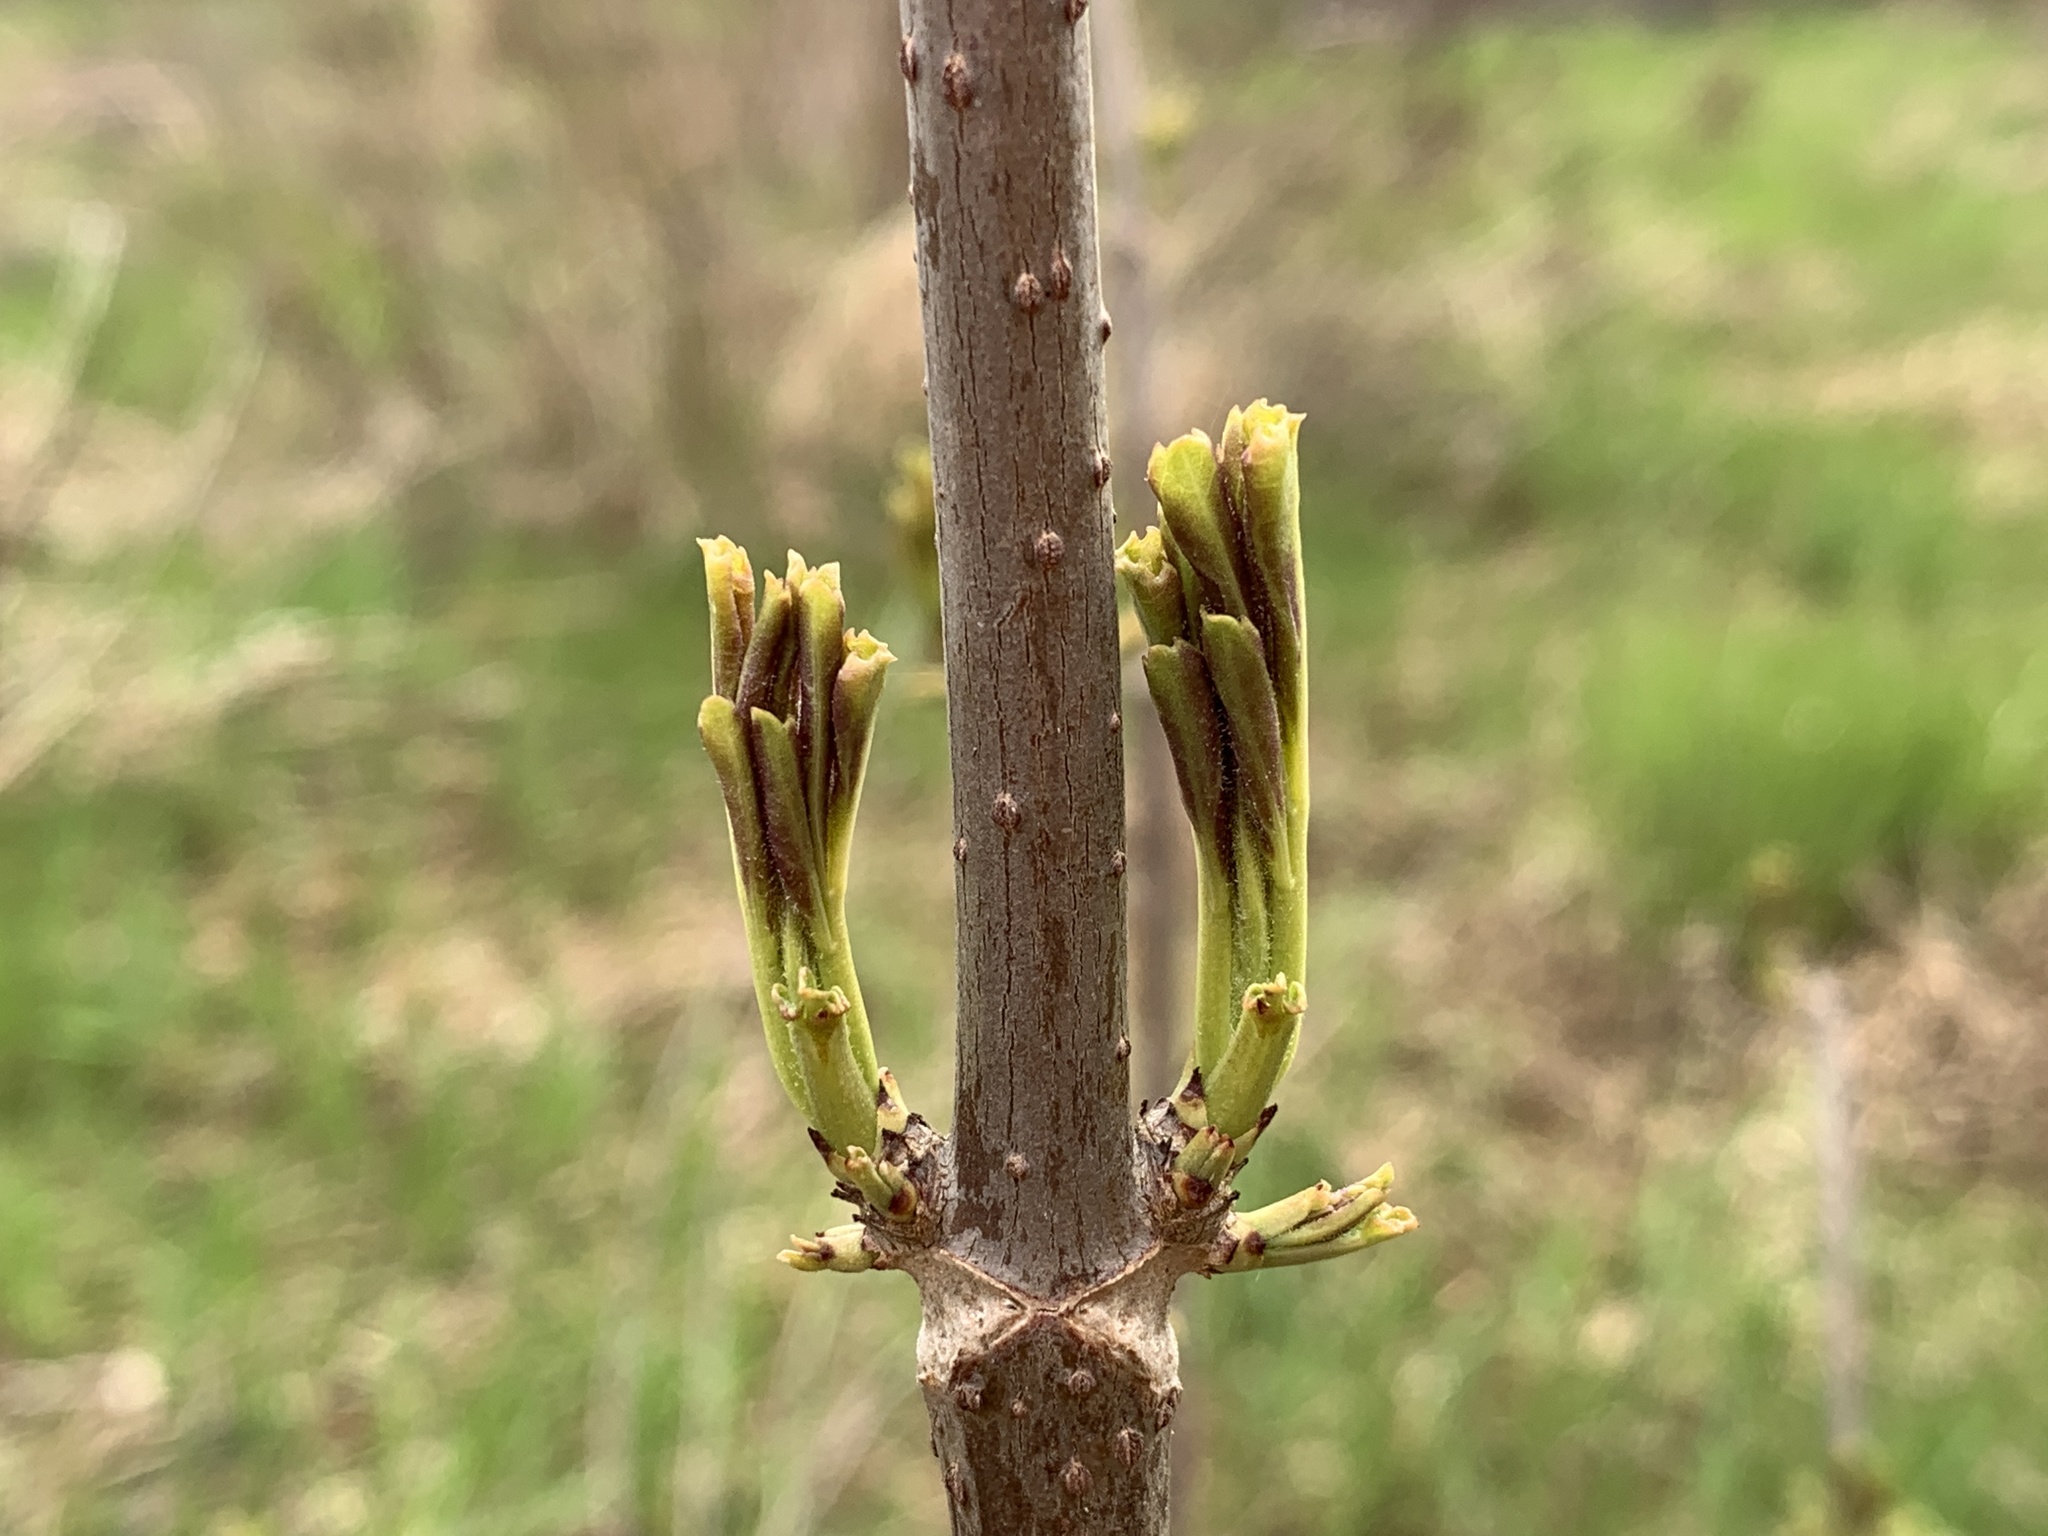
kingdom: Plantae
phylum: Tracheophyta
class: Magnoliopsida
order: Dipsacales
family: Viburnaceae
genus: Sambucus
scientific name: Sambucus racemosa
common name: Red-berried elder
